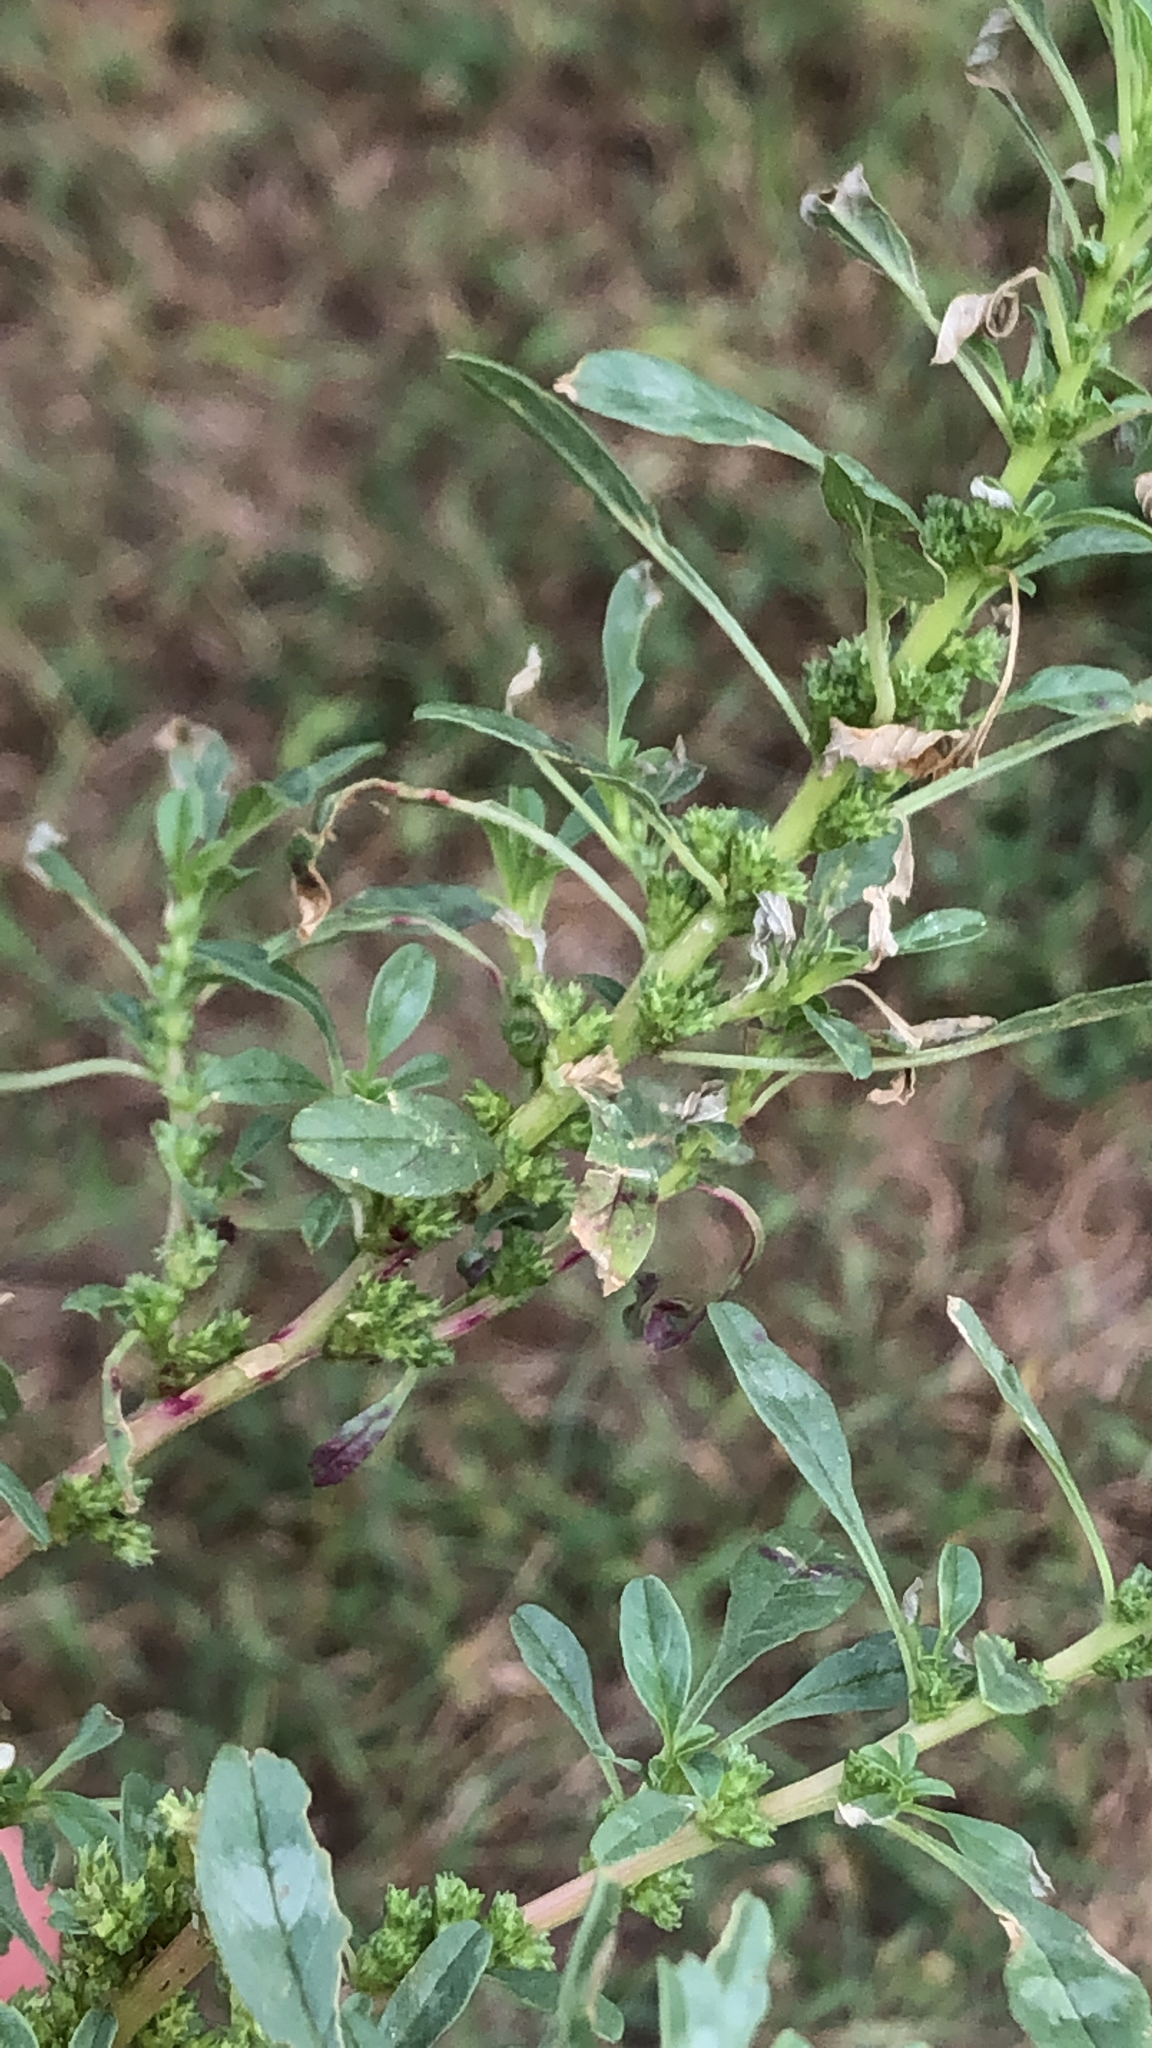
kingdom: Plantae
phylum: Tracheophyta
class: Magnoliopsida
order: Caryophyllales
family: Amaranthaceae
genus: Amaranthus
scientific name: Amaranthus albus
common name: White pigweed
